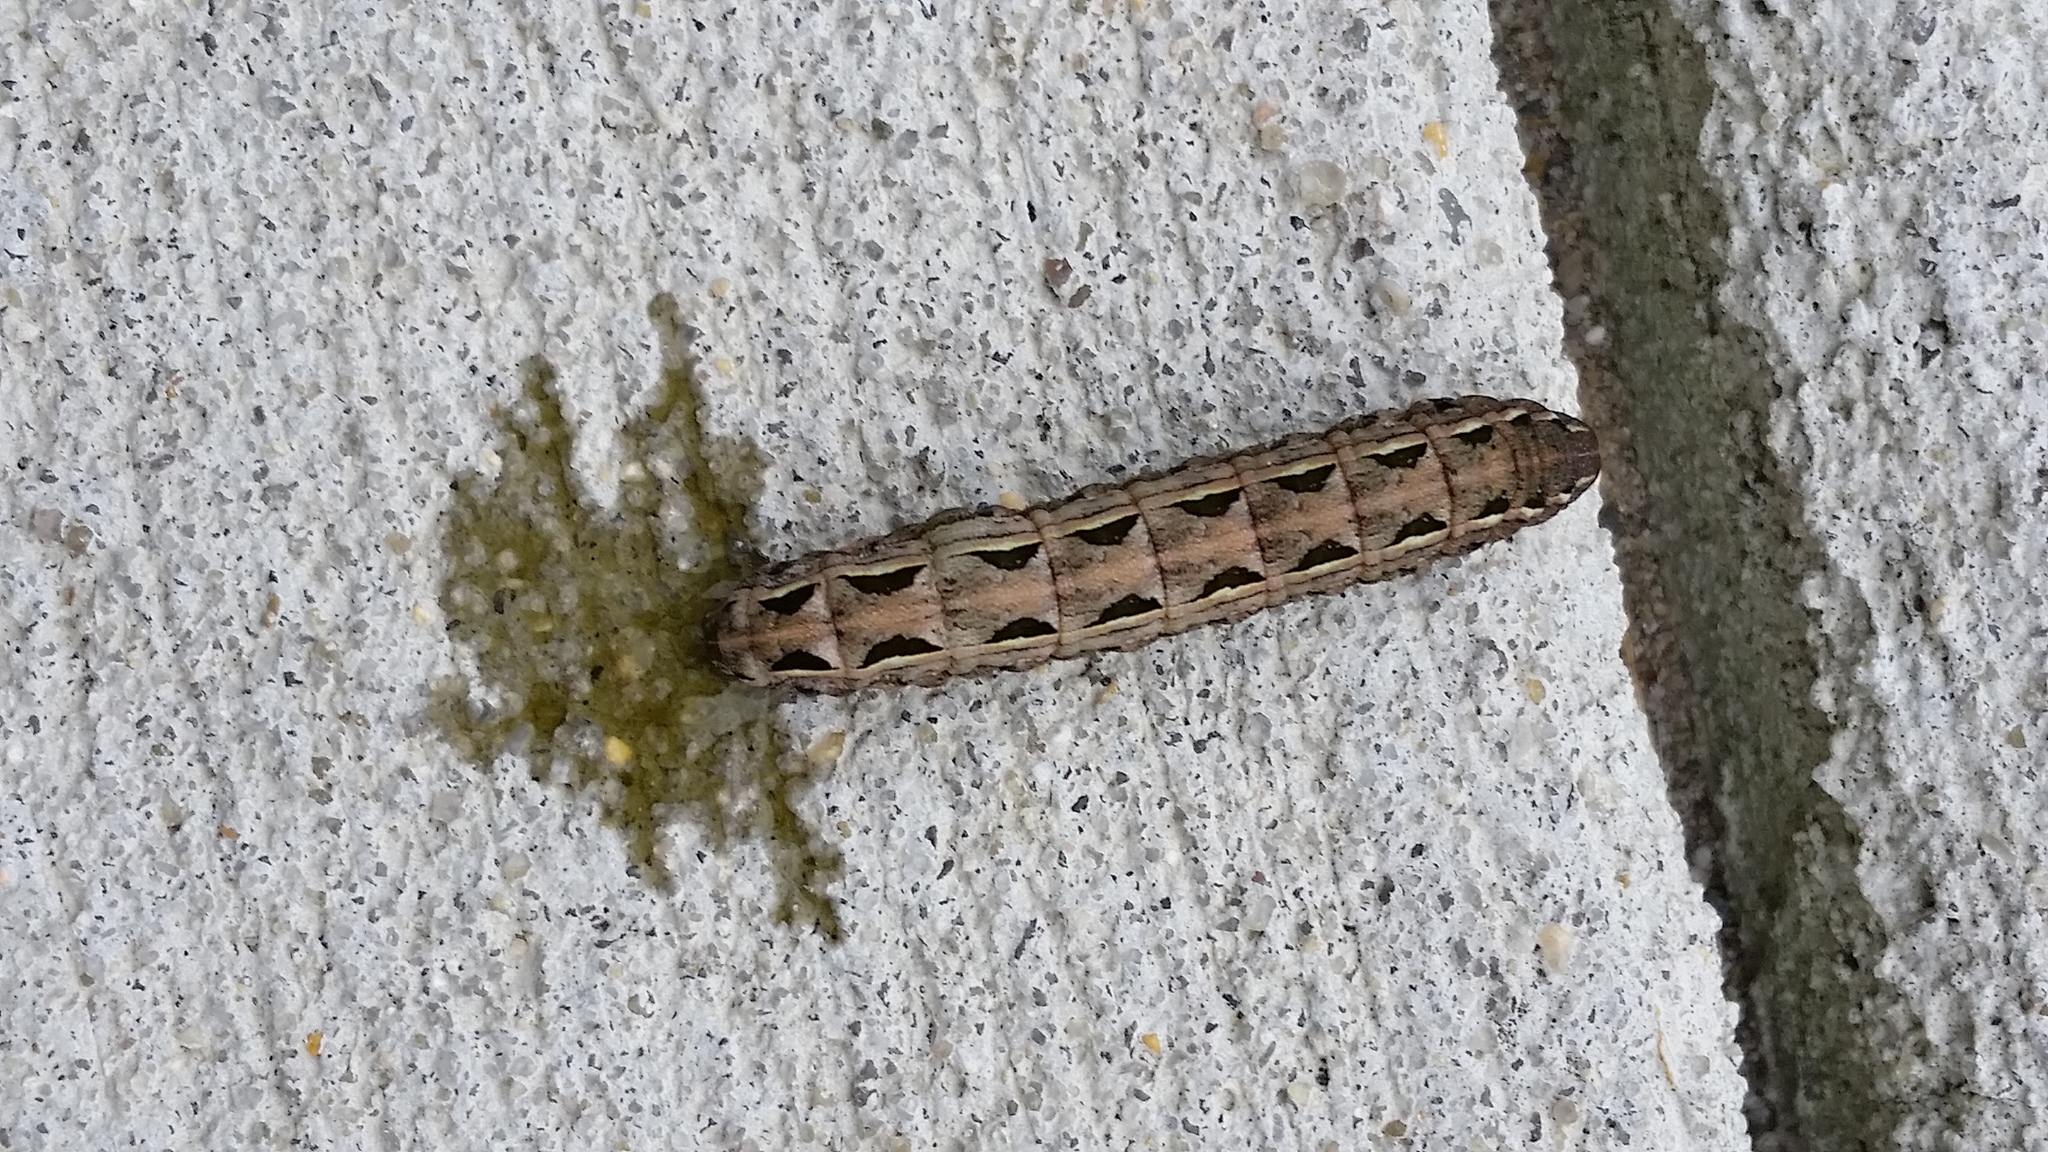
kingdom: Animalia
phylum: Arthropoda
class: Insecta
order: Lepidoptera
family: Noctuidae
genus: Spodoptera
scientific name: Spodoptera ornithogalli
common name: Yellow-striped armyworm
